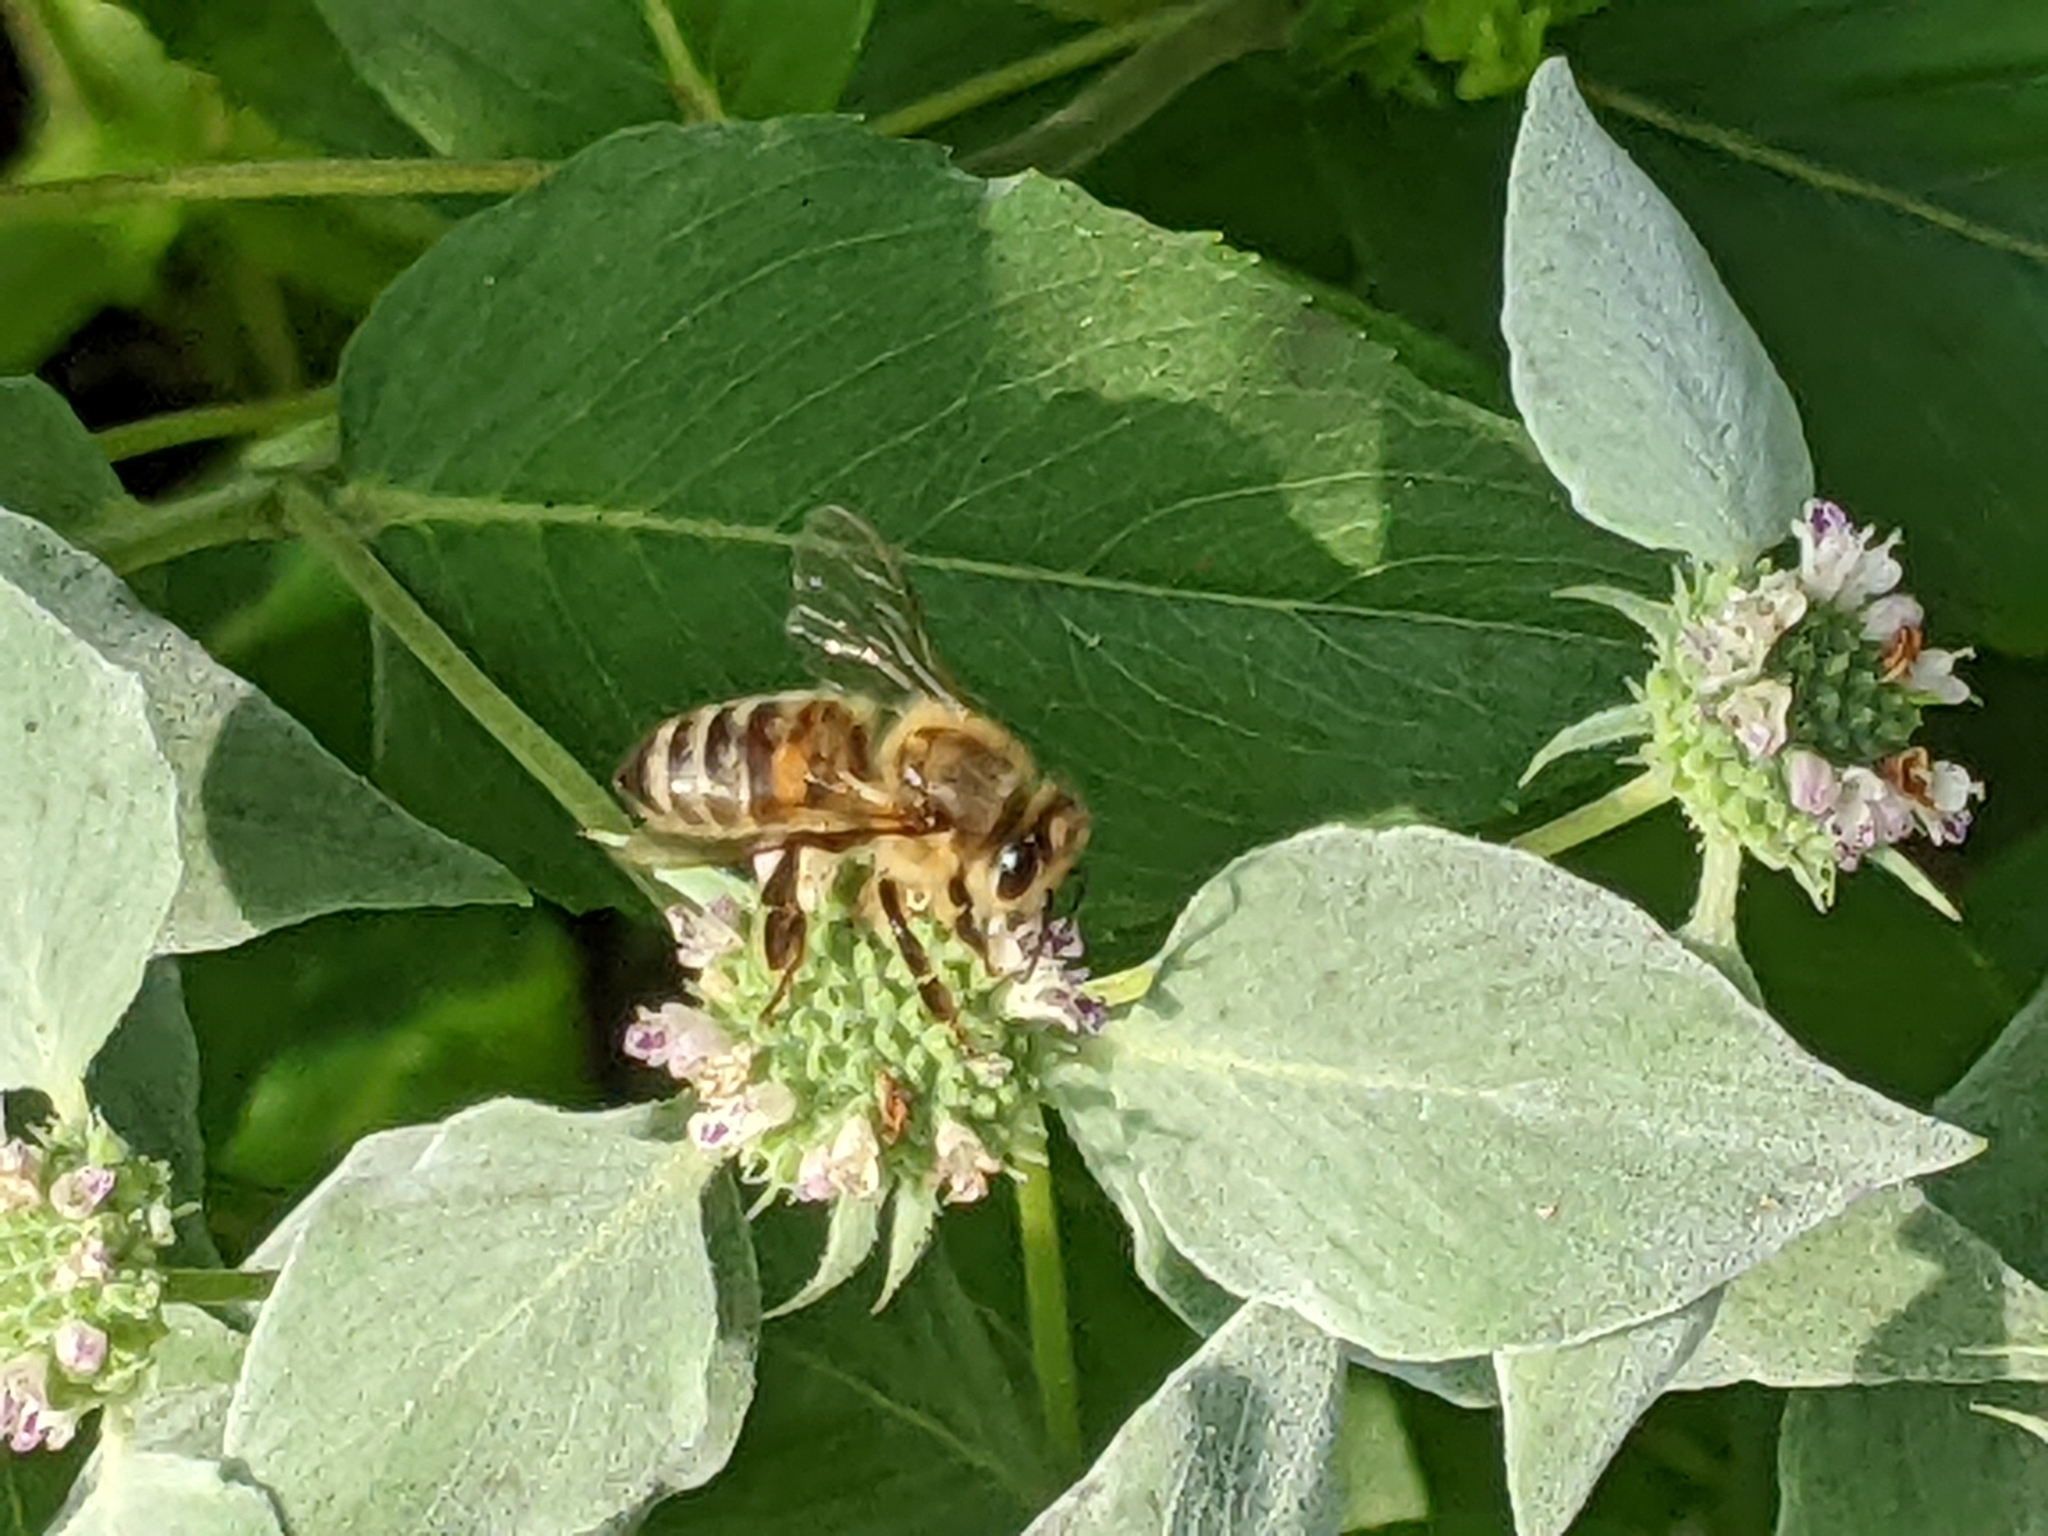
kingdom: Animalia
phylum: Arthropoda
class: Insecta
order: Hymenoptera
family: Apidae
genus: Apis
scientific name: Apis mellifera
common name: Honey bee
